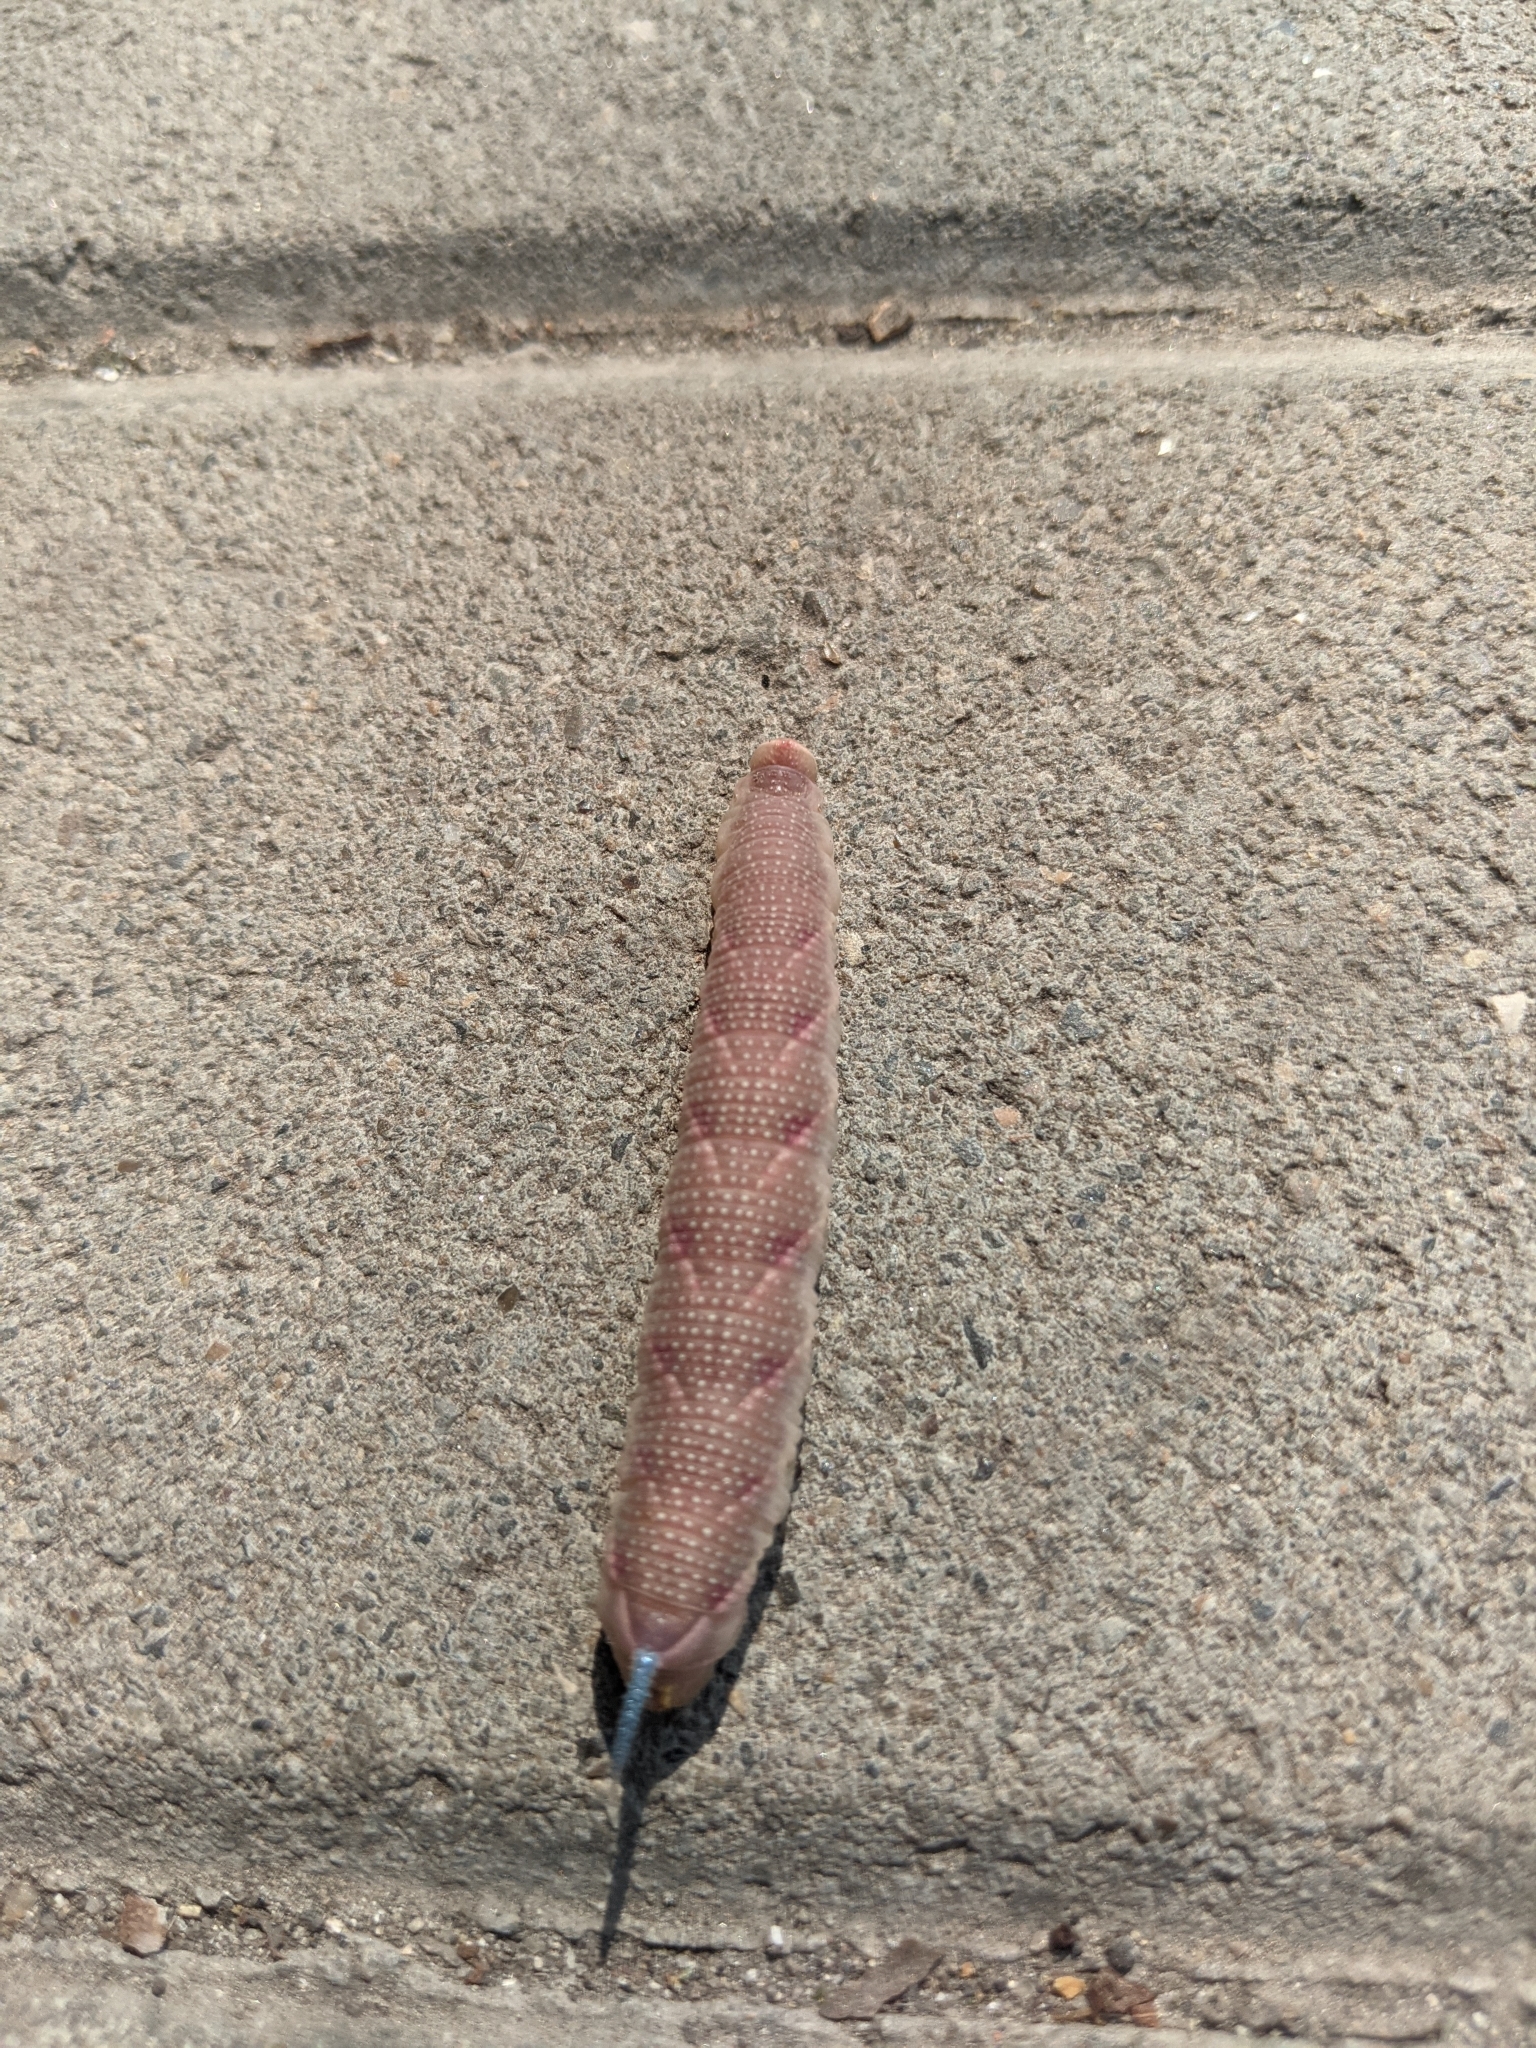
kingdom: Animalia
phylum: Arthropoda
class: Insecta
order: Lepidoptera
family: Sphingidae
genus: Mimas
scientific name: Mimas tiliae
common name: Lime hawk-moth
